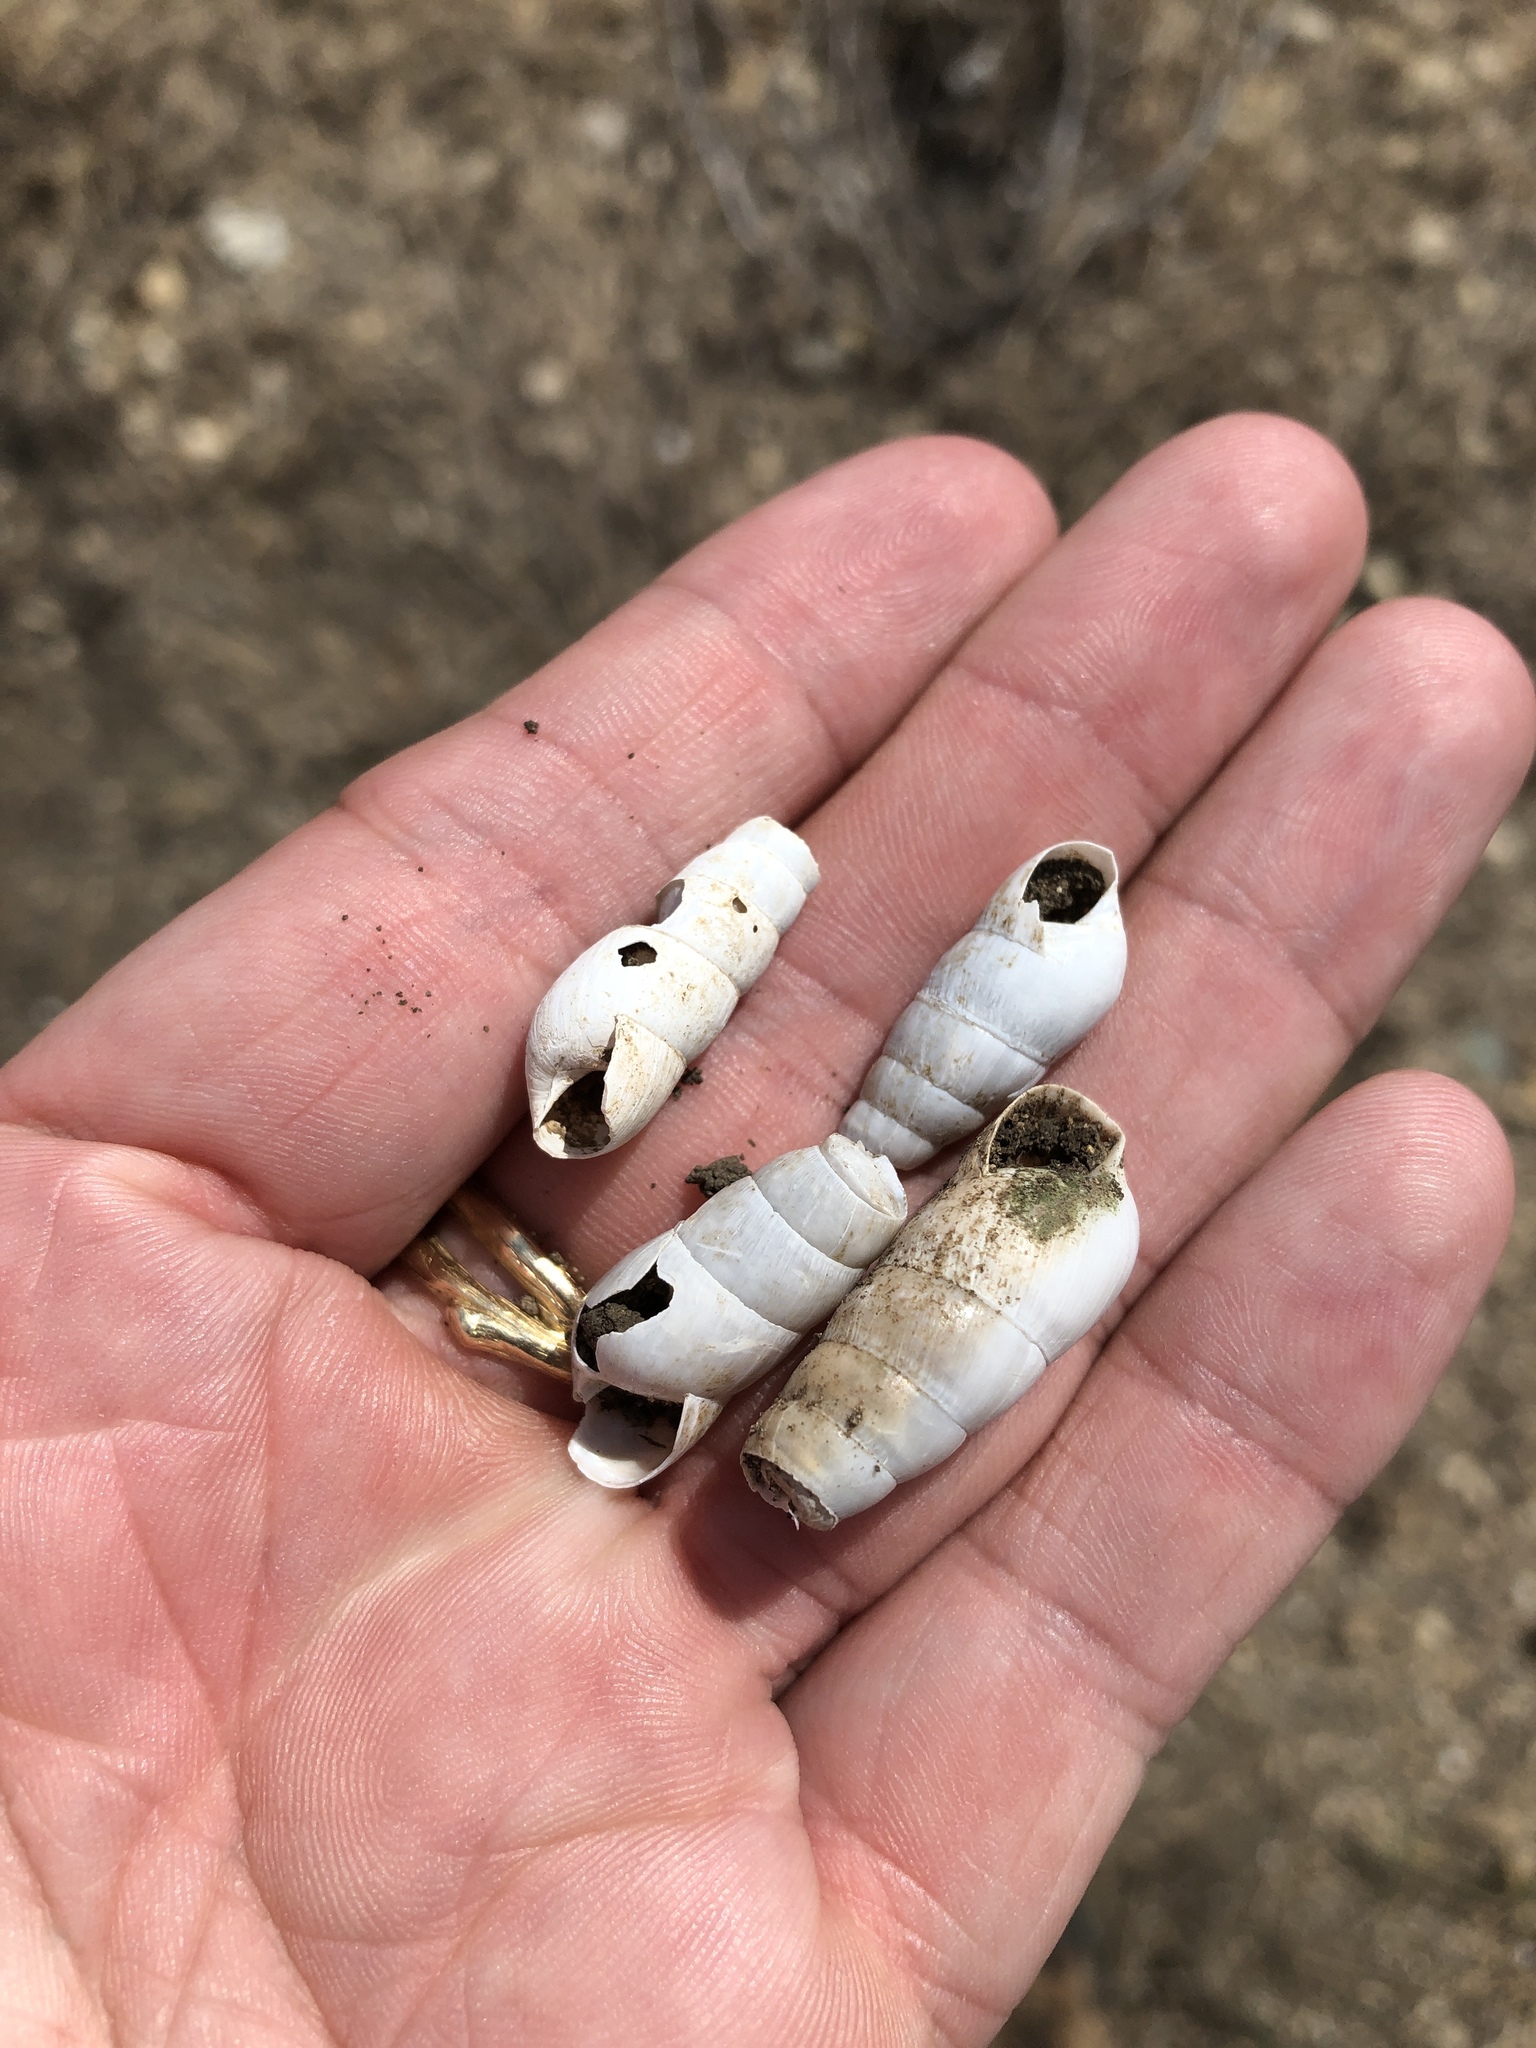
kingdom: Animalia
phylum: Mollusca
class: Gastropoda
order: Stylommatophora
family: Achatinidae
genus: Rumina
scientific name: Rumina decollata
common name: Decollate snail
